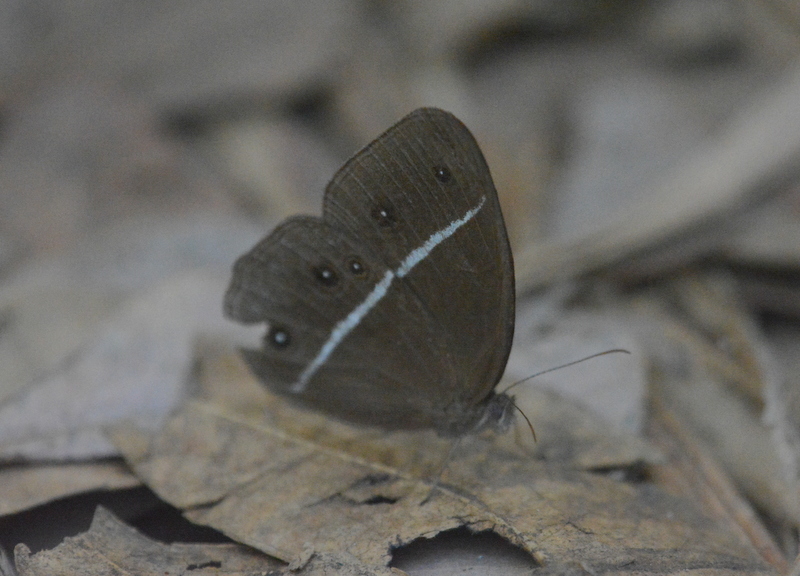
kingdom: Animalia
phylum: Arthropoda
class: Insecta
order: Lepidoptera
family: Nymphalidae
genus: Orsotriaena
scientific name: Orsotriaena medus
